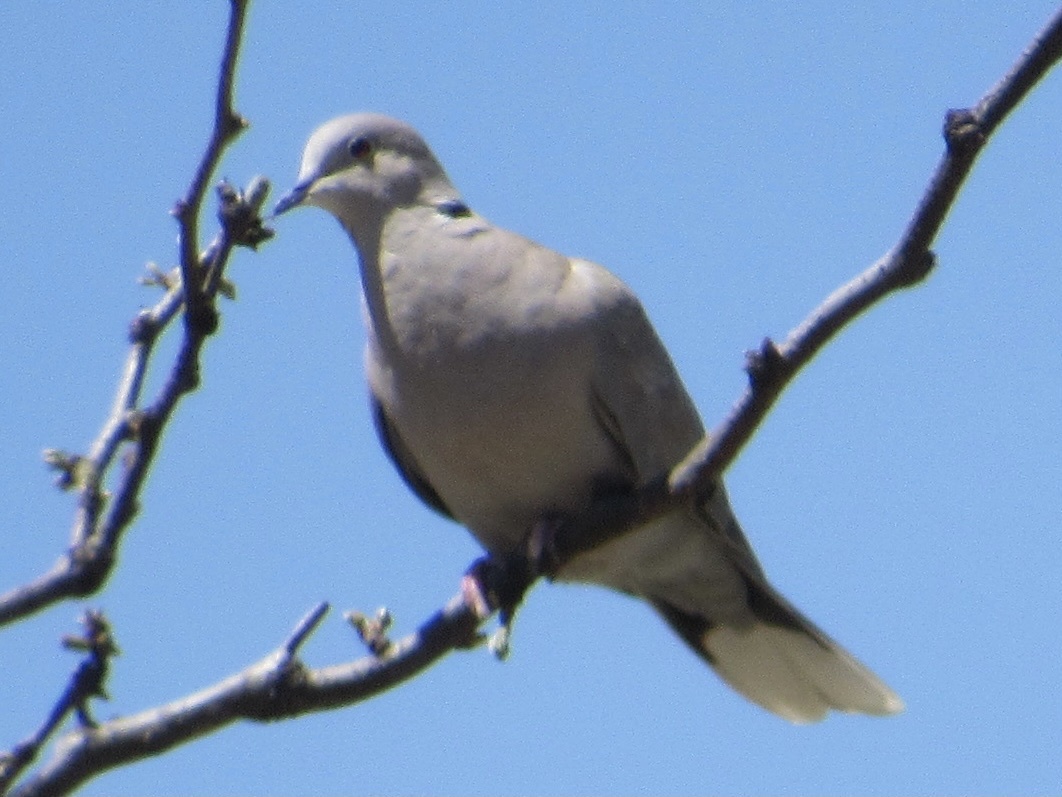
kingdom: Animalia
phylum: Chordata
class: Aves
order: Columbiformes
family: Columbidae
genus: Streptopelia
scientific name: Streptopelia decaocto
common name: Eurasian collared dove
